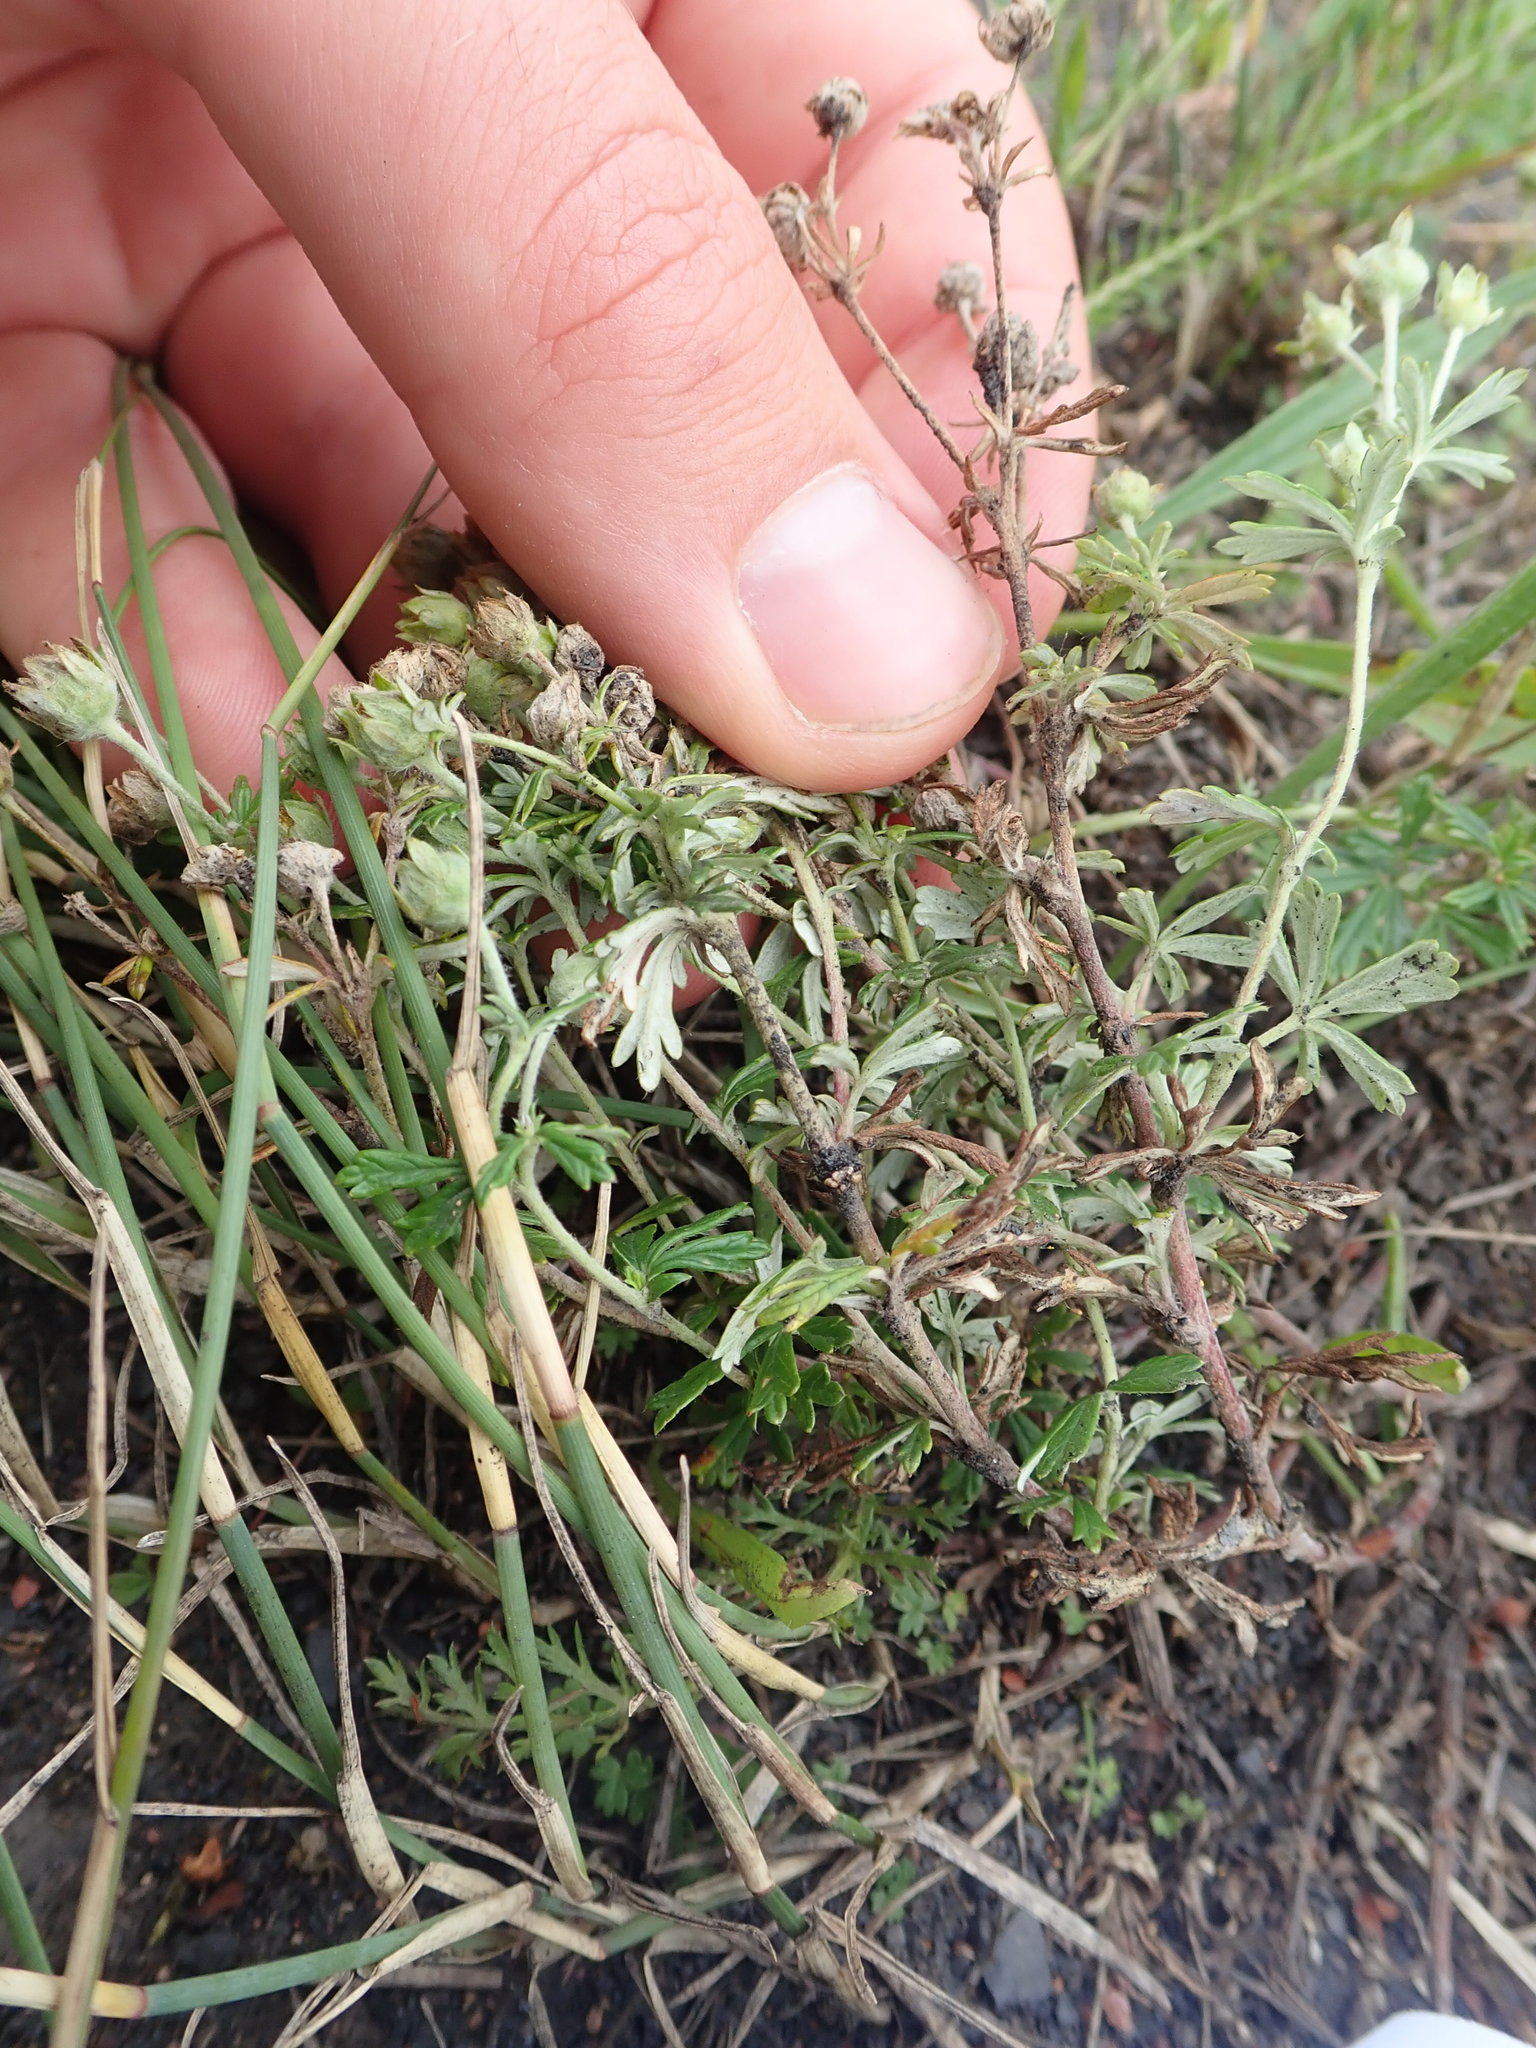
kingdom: Plantae
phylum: Tracheophyta
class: Magnoliopsida
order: Rosales
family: Rosaceae
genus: Potentilla
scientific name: Potentilla argentea
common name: Hoary cinquefoil
